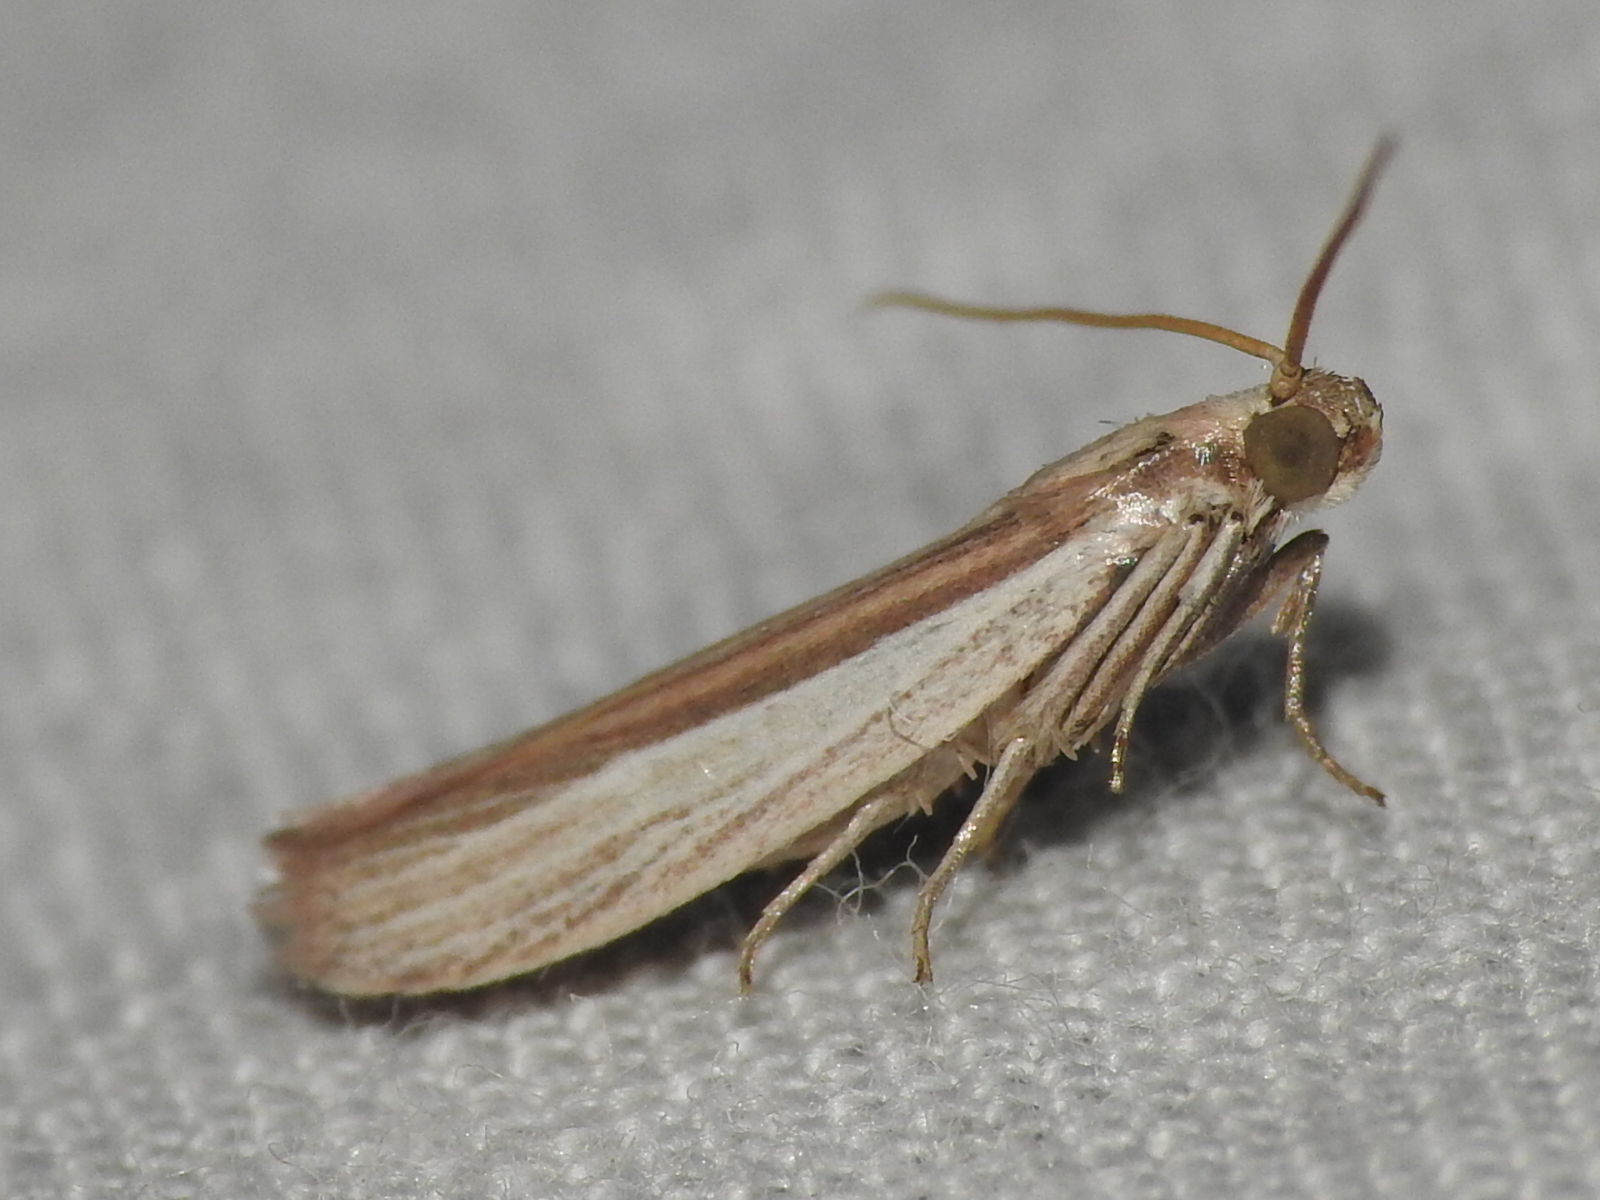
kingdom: Animalia
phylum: Arthropoda
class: Insecta
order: Lepidoptera
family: Pyralidae
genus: Anderida
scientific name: Anderida peorinella
